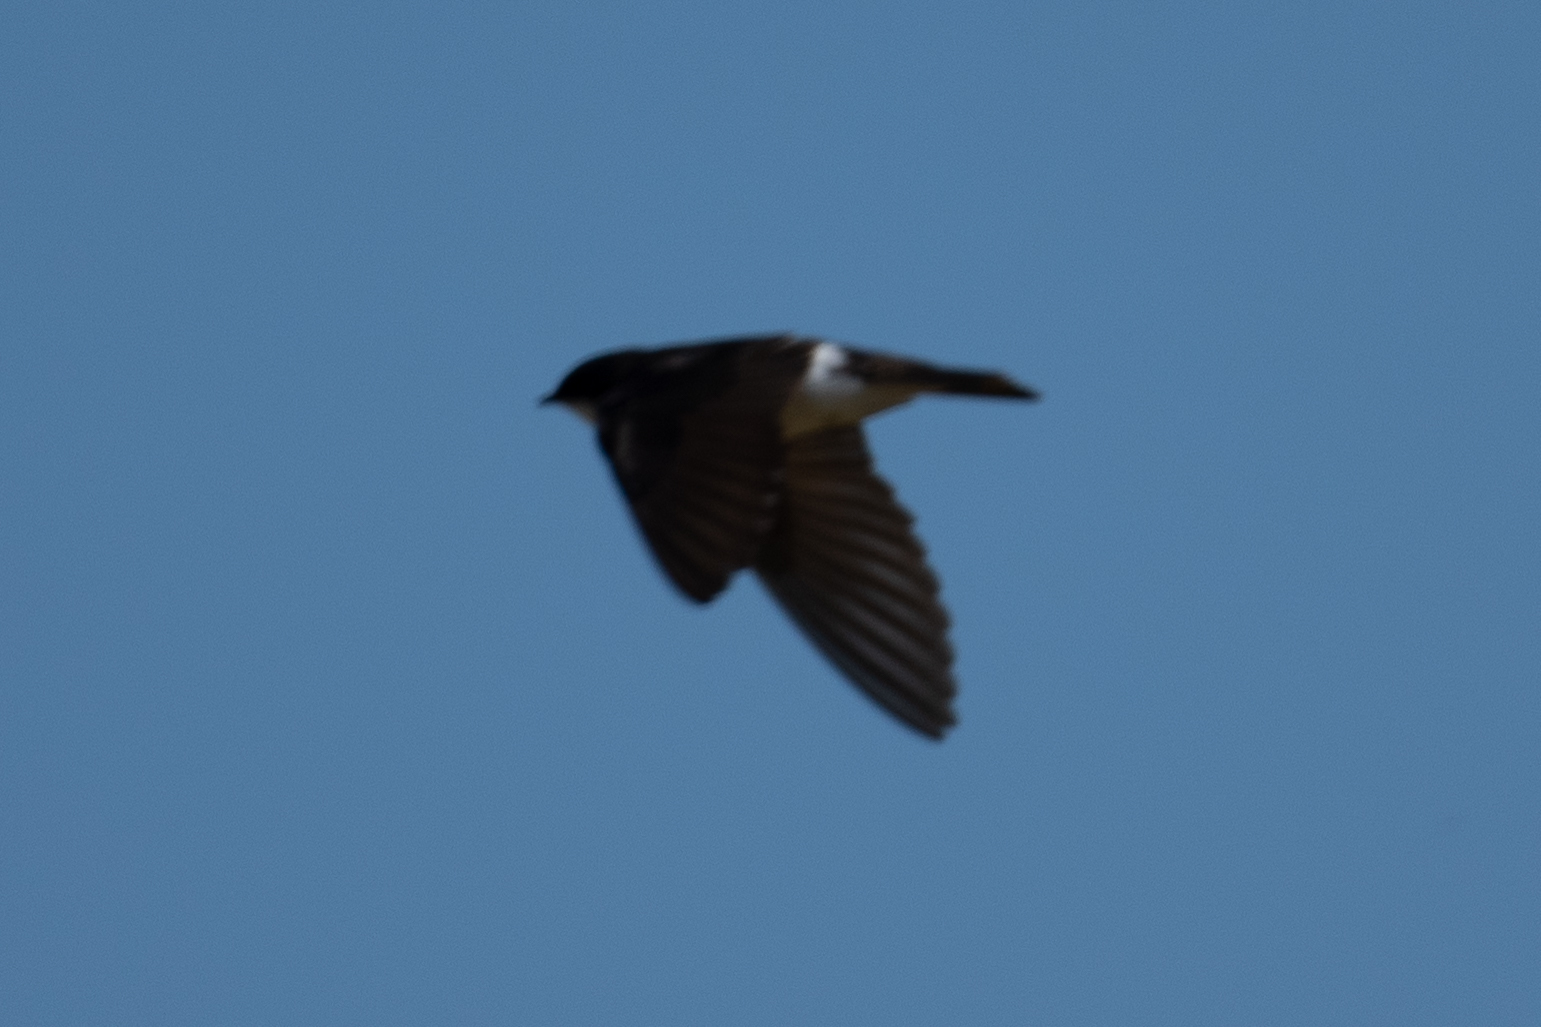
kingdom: Animalia
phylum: Chordata
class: Aves
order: Passeriformes
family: Hirundinidae
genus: Tachycineta
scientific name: Tachycineta bicolor
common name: Tree swallow
